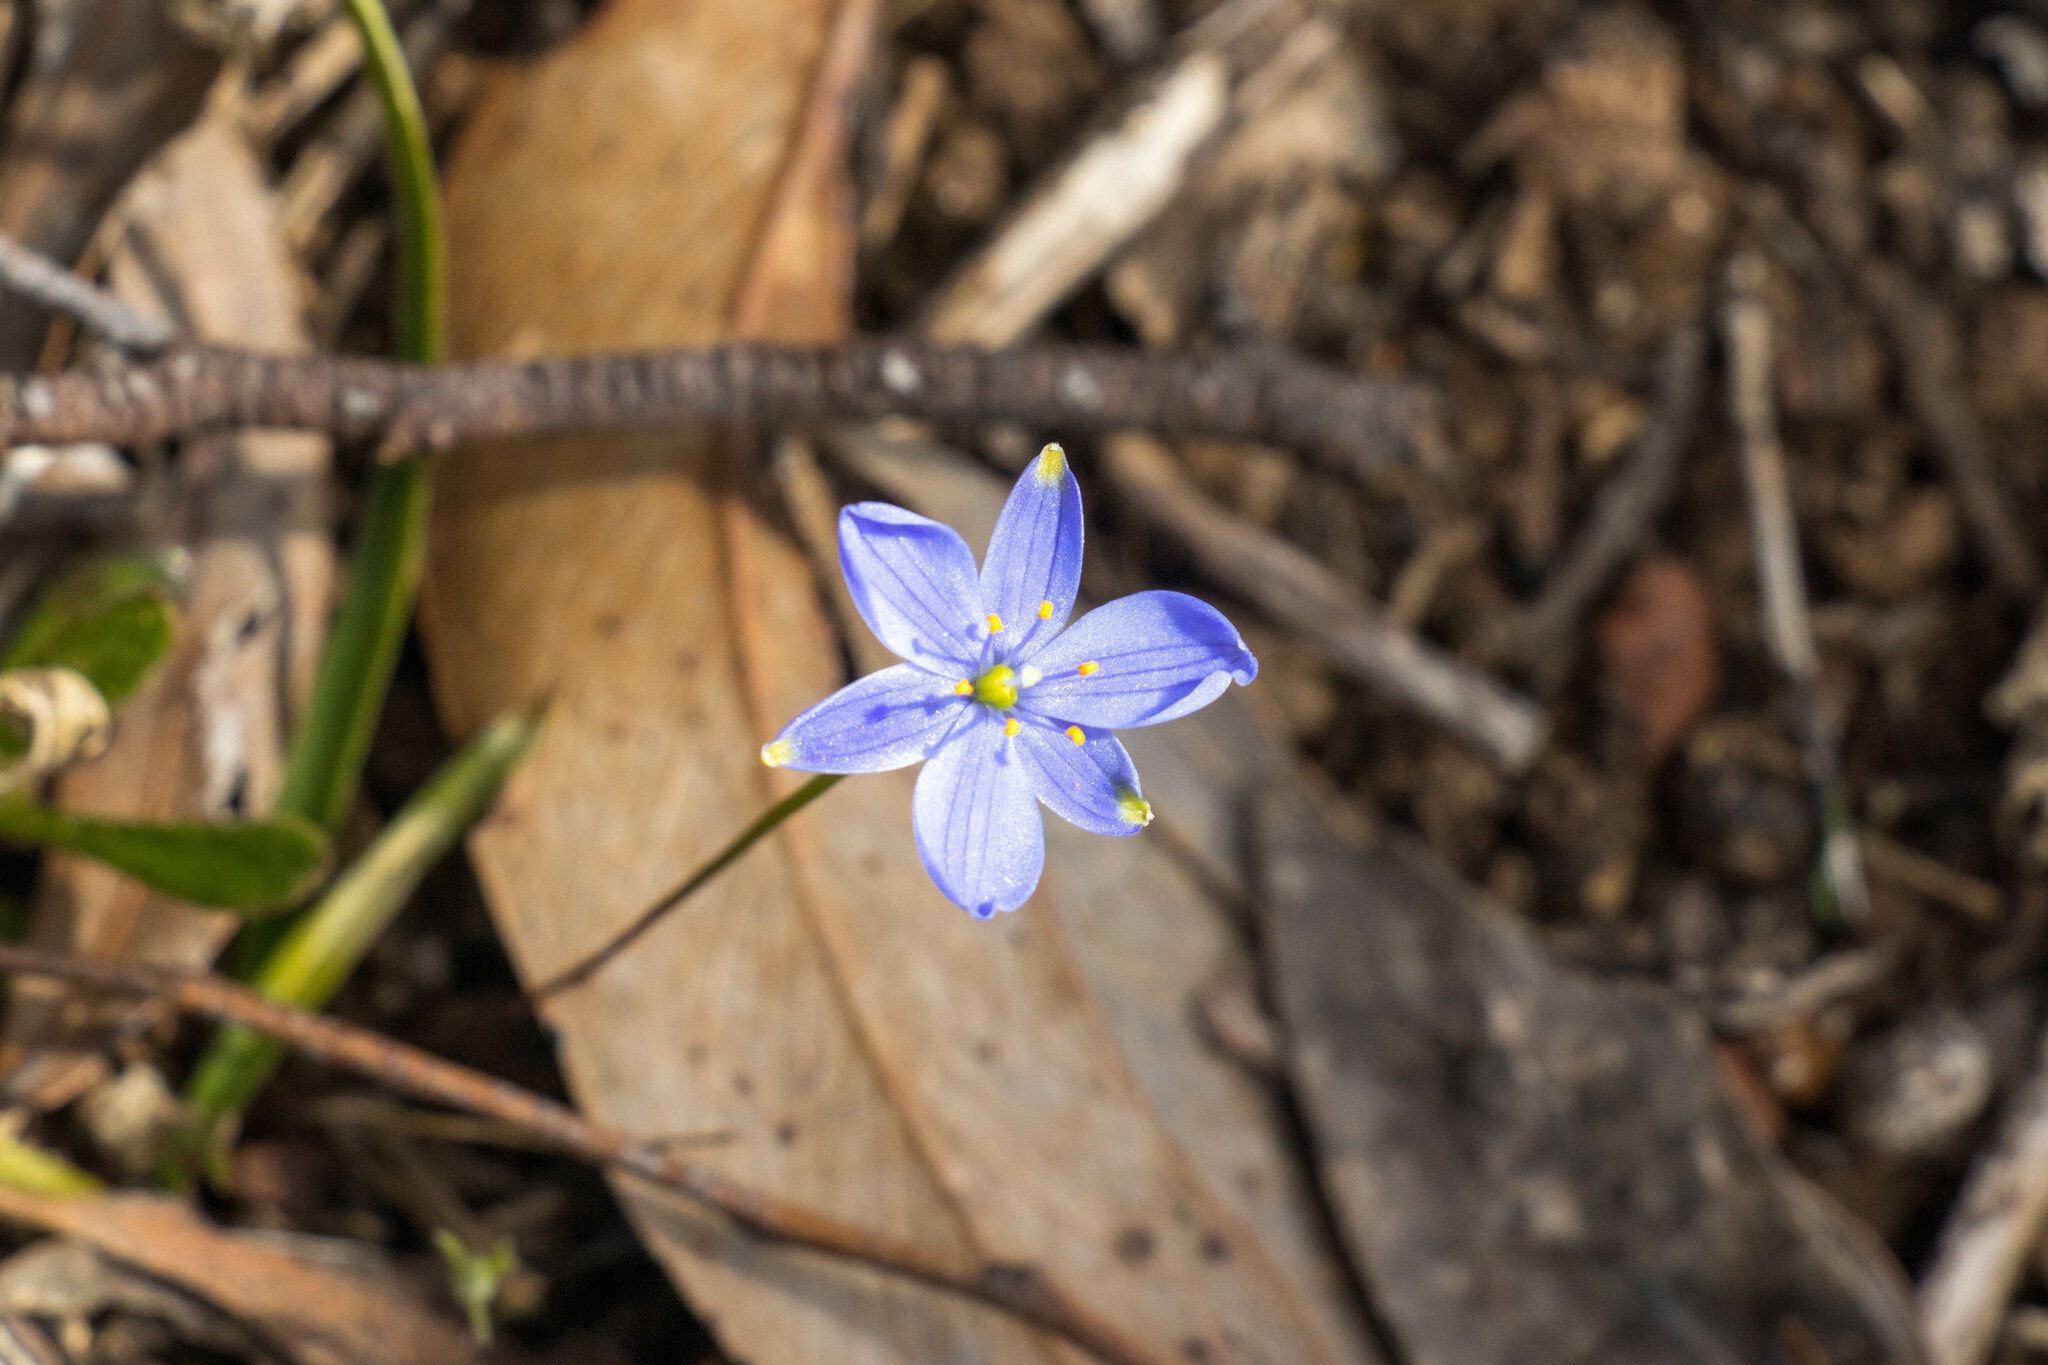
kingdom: Plantae
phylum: Tracheophyta
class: Liliopsida
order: Asparagales
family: Asphodelaceae
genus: Chamaescilla
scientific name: Chamaescilla corymbosa
